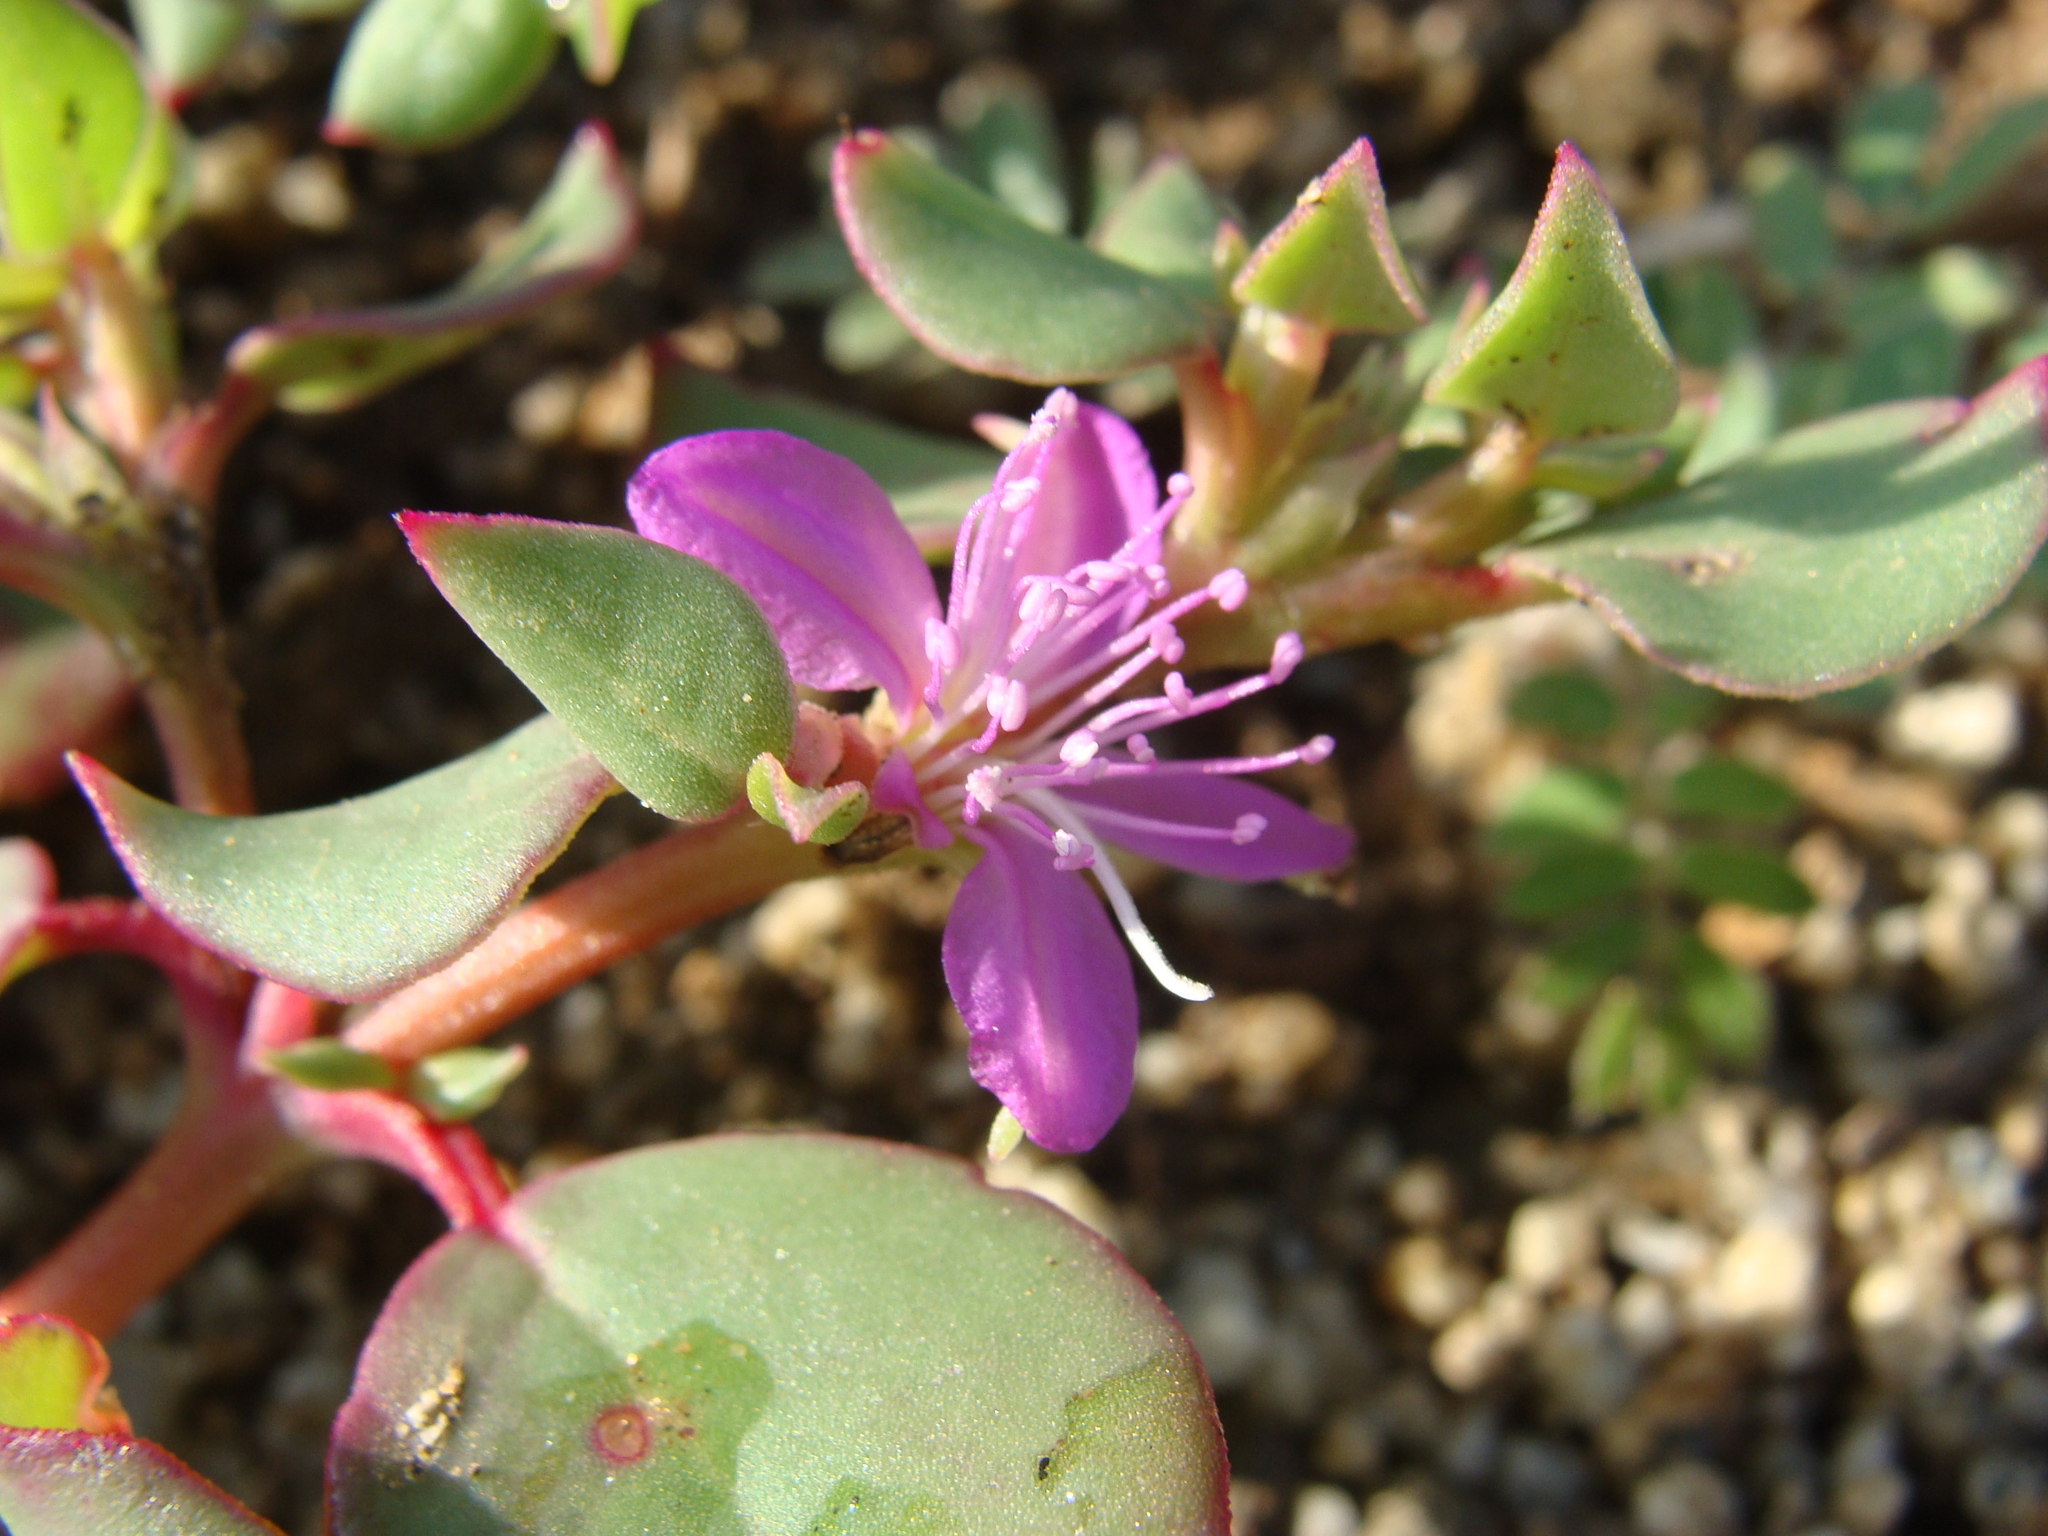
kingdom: Plantae
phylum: Tracheophyta
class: Magnoliopsida
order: Caryophyllales
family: Aizoaceae
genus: Trianthema
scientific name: Trianthema portulacastrum
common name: Desert horsepurslane
